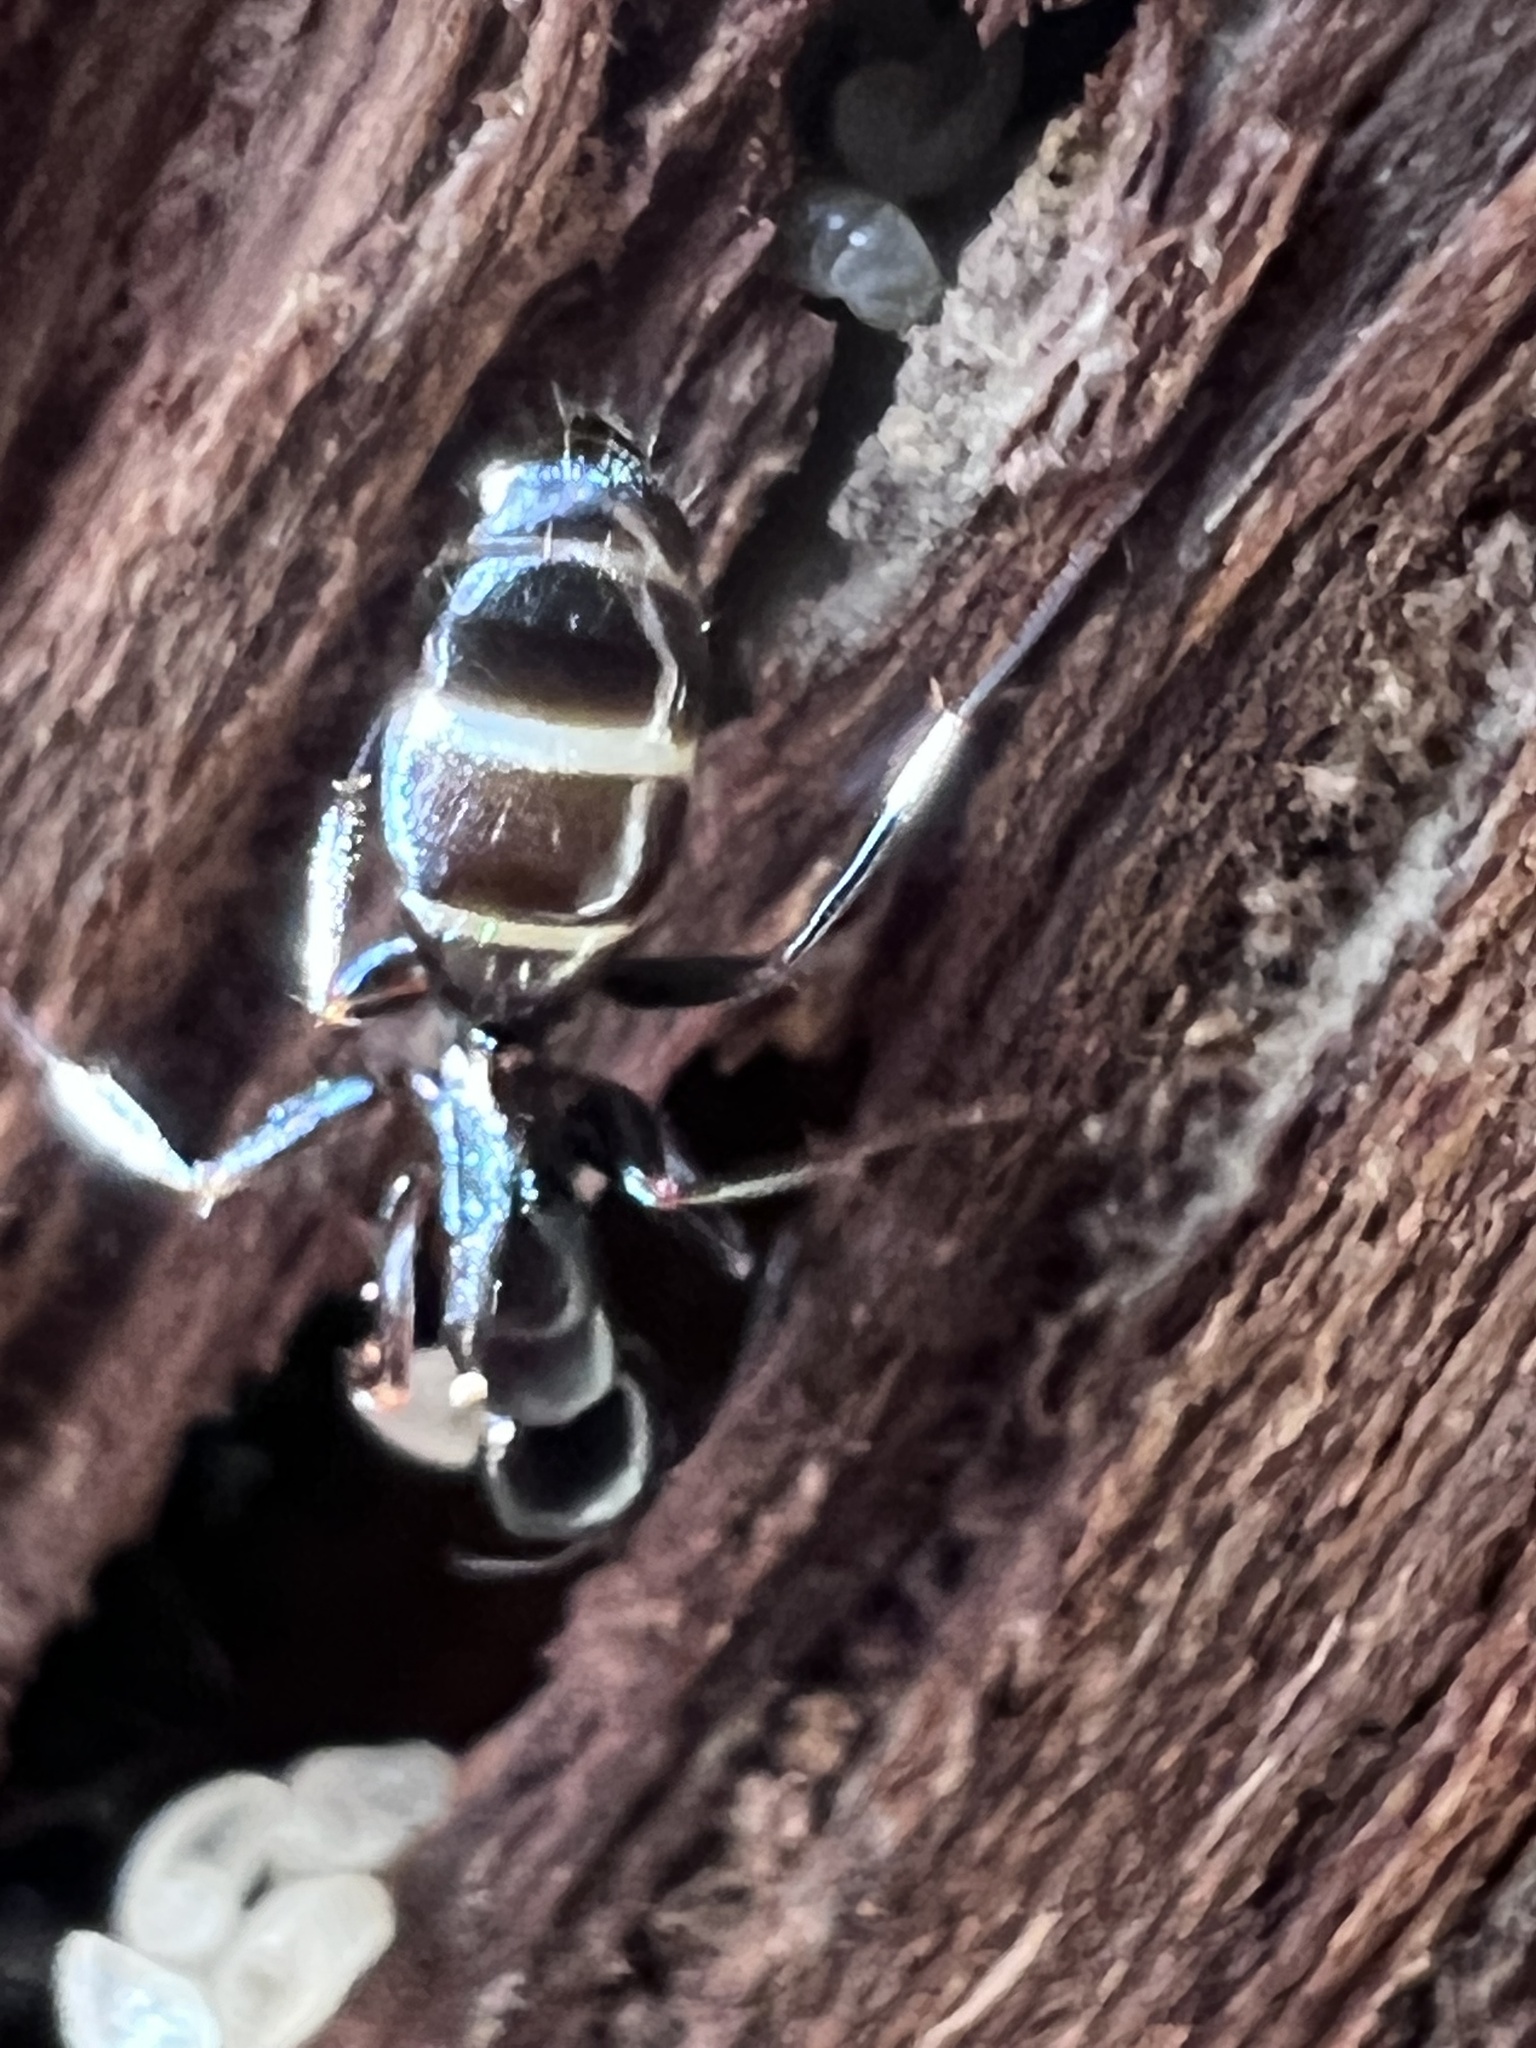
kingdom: Animalia
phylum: Arthropoda
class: Insecta
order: Hymenoptera
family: Formicidae
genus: Camponotus
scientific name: Camponotus nearcticus
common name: Smaller carpenter ant
